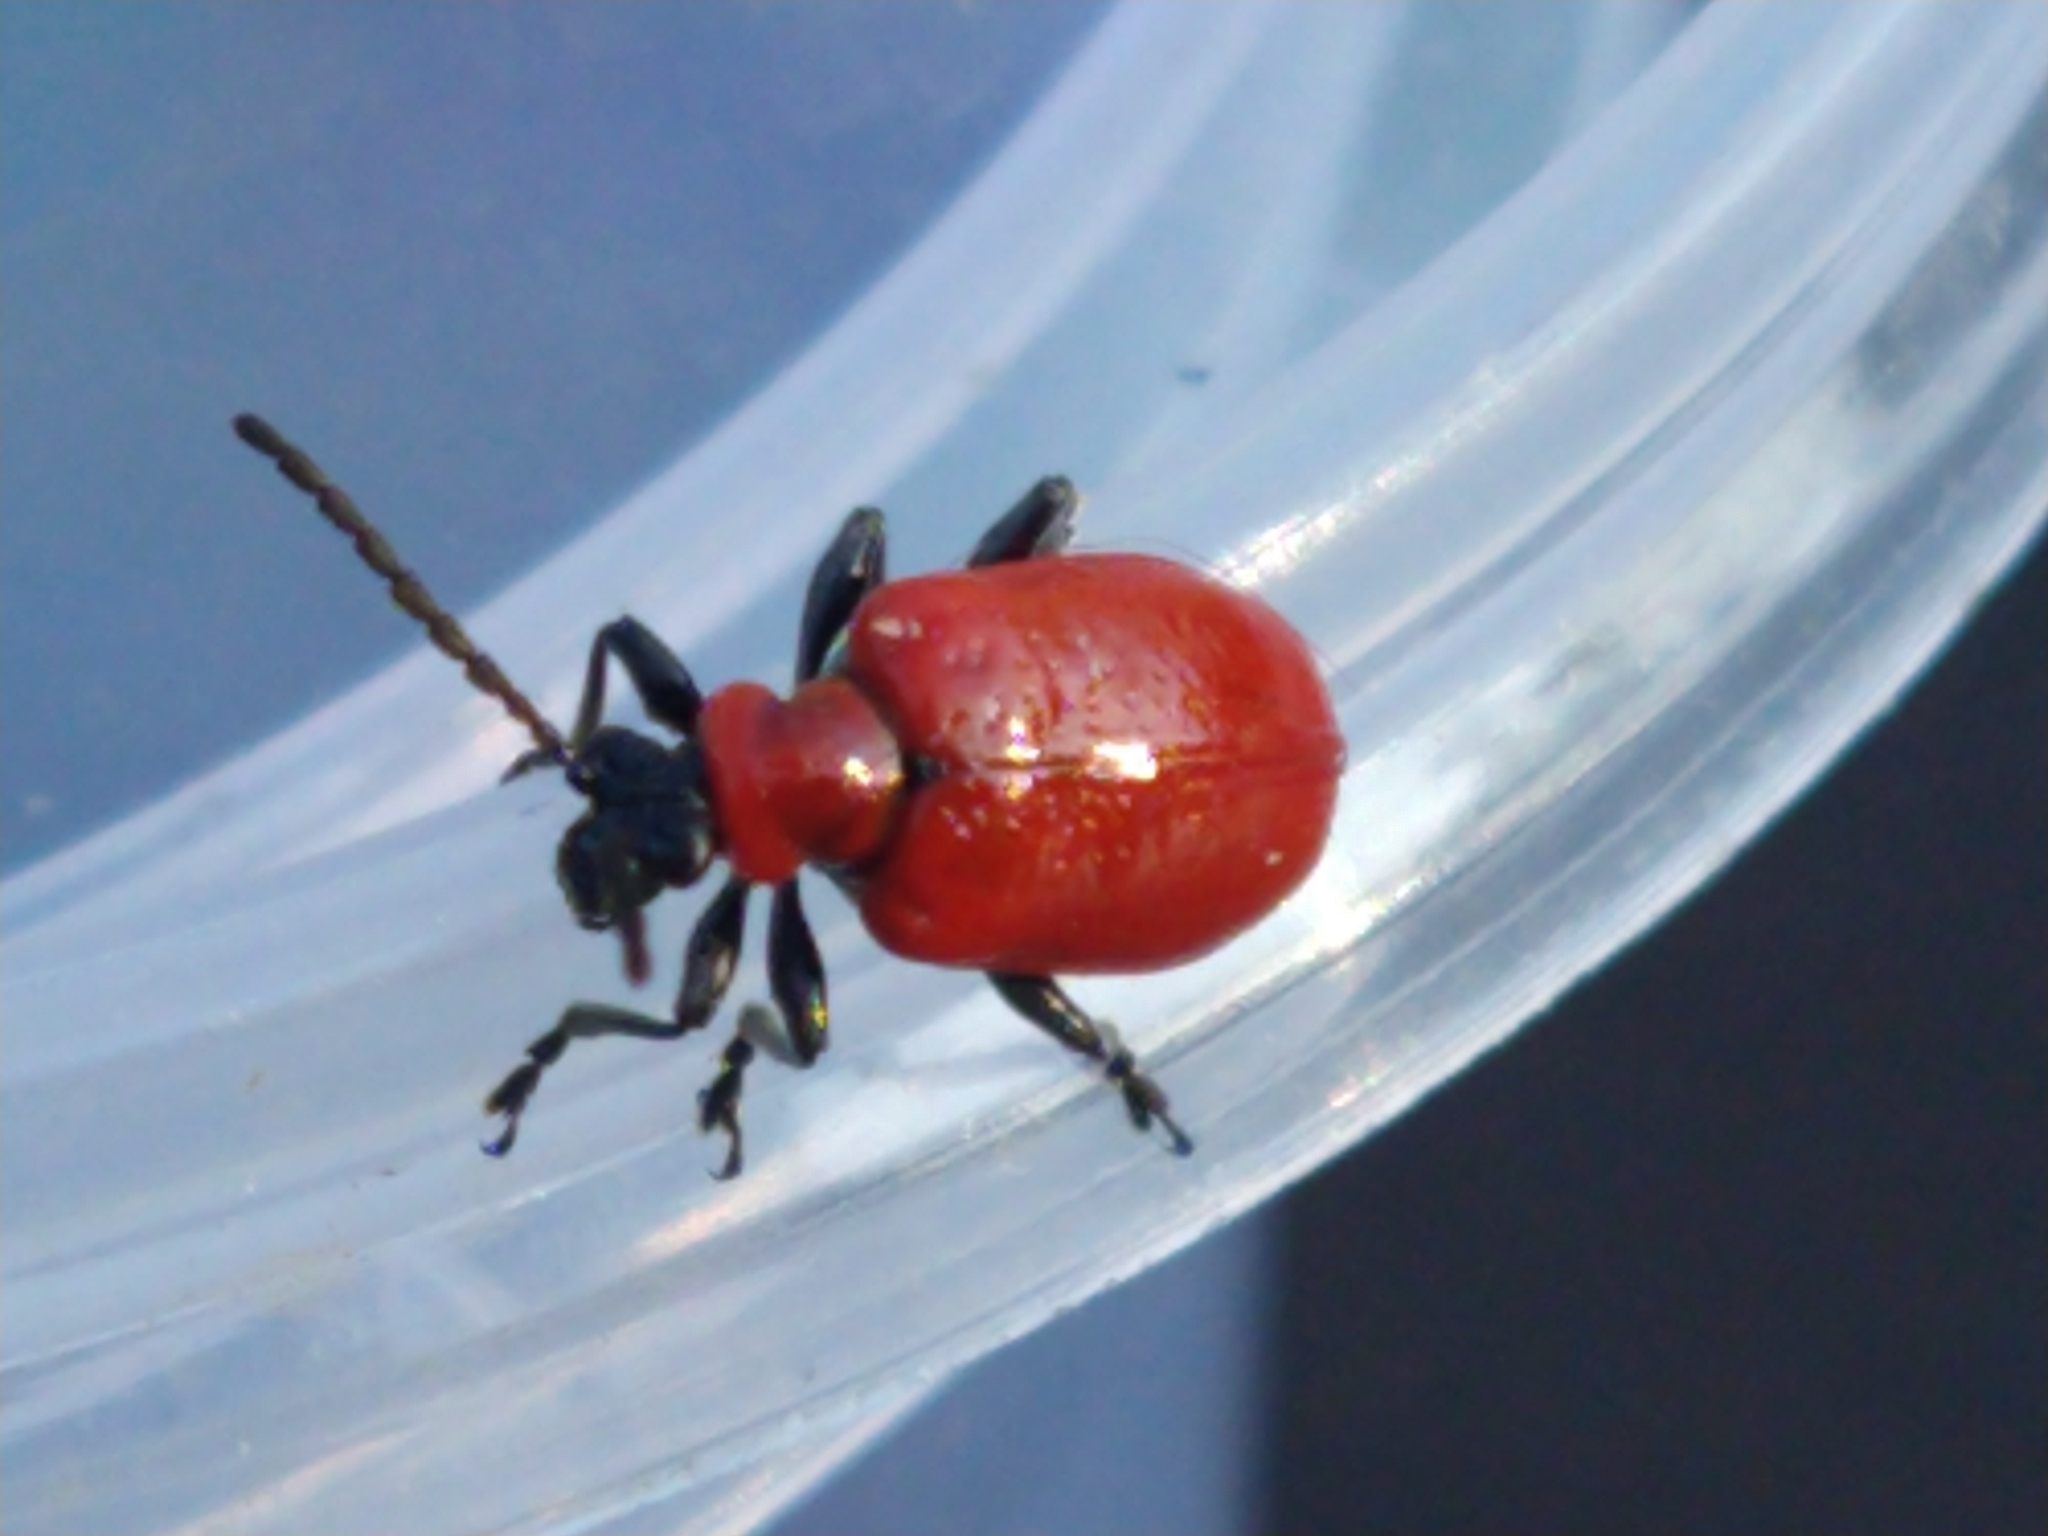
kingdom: Animalia
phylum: Arthropoda
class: Insecta
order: Coleoptera
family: Chrysomelidae
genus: Lilioceris
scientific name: Lilioceris lilii
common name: Lily beetle
